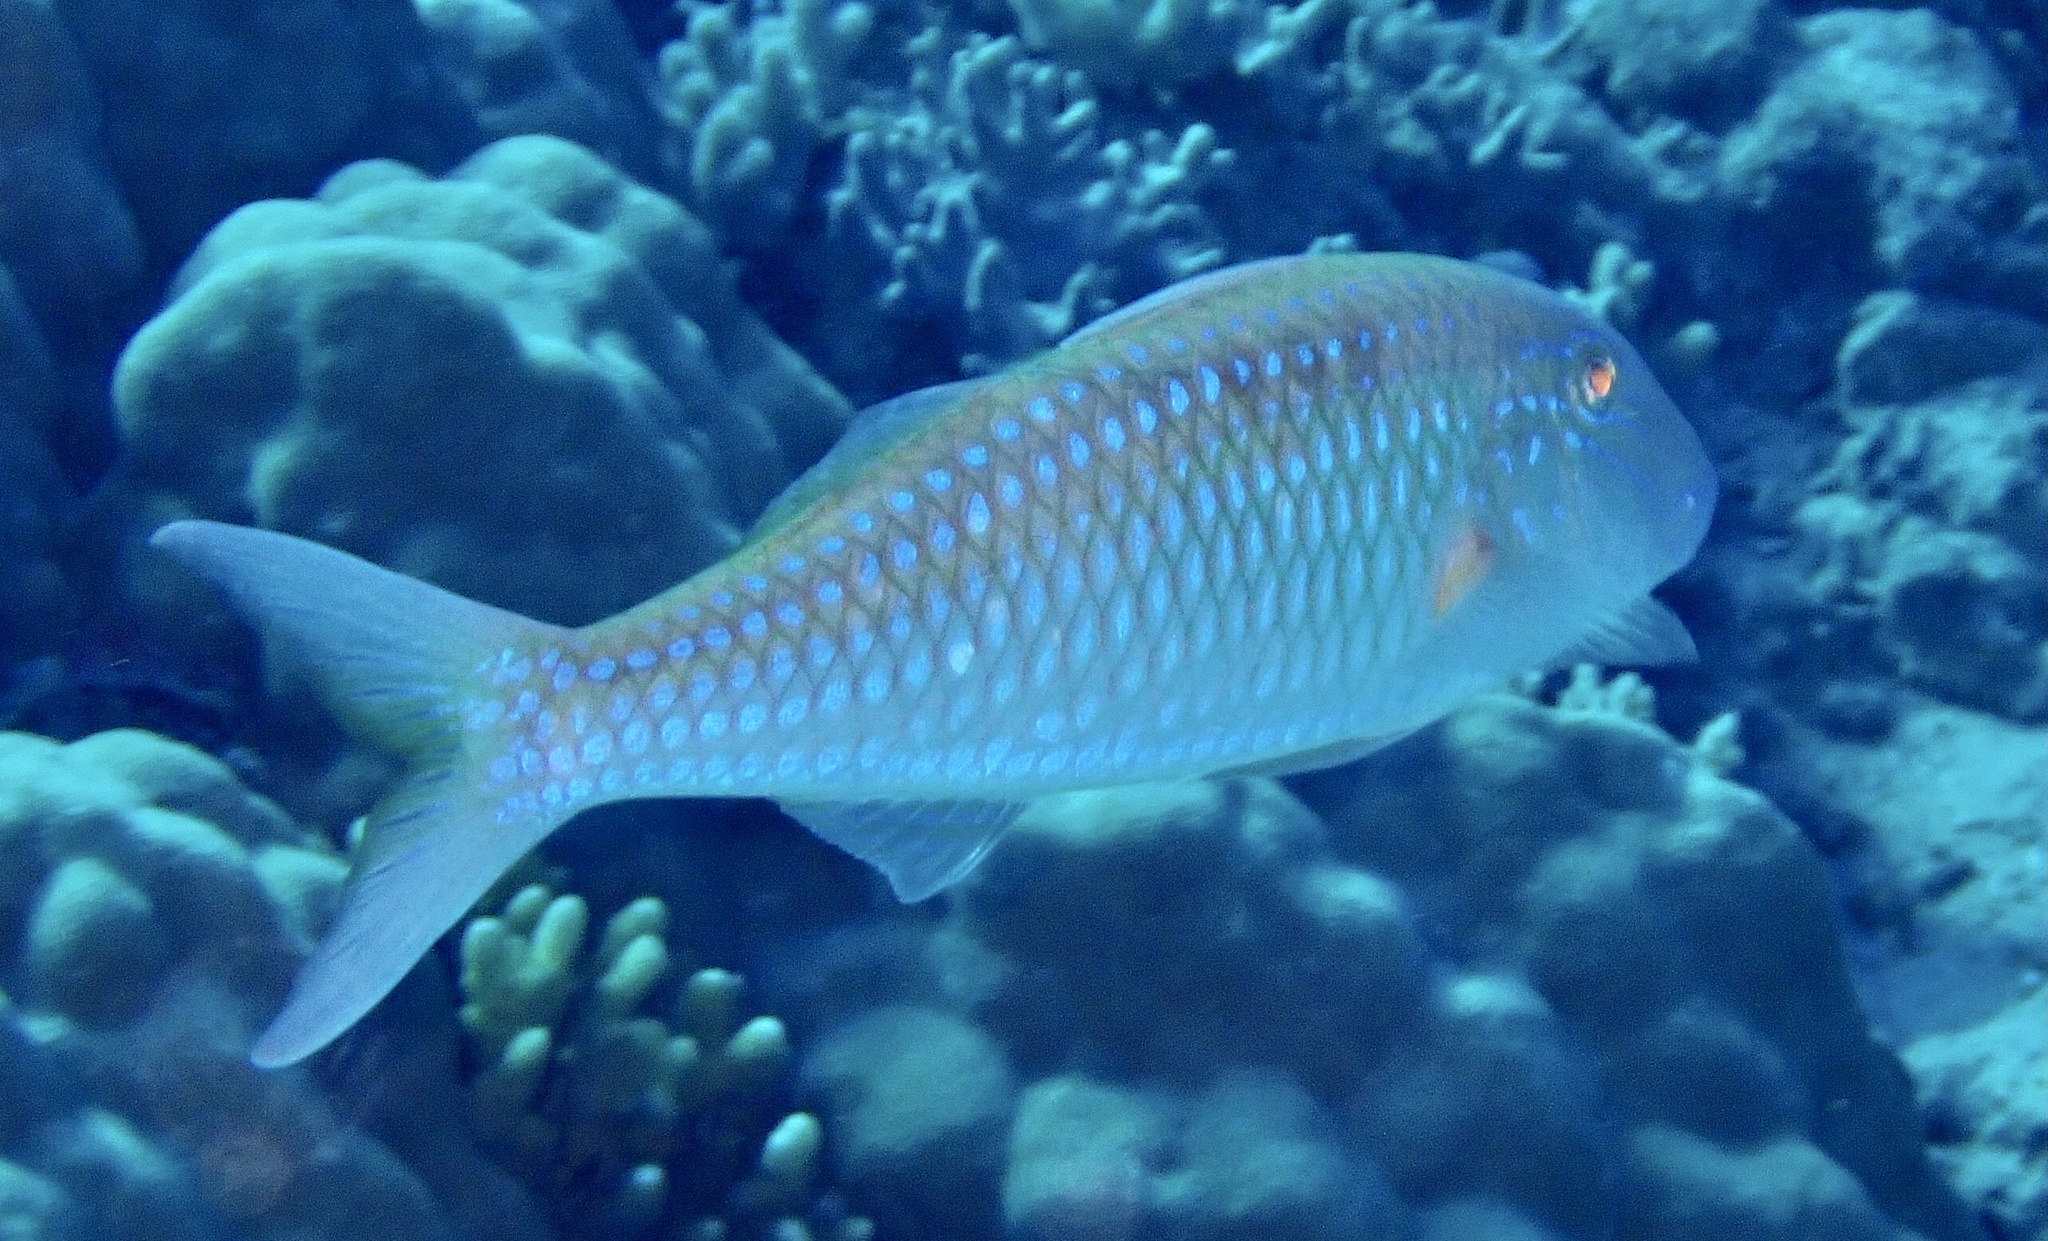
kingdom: Animalia
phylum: Chordata
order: Perciformes
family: Mullidae
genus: Parupeneus
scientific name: Parupeneus heptacanthus
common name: Cinnabar goatfish
